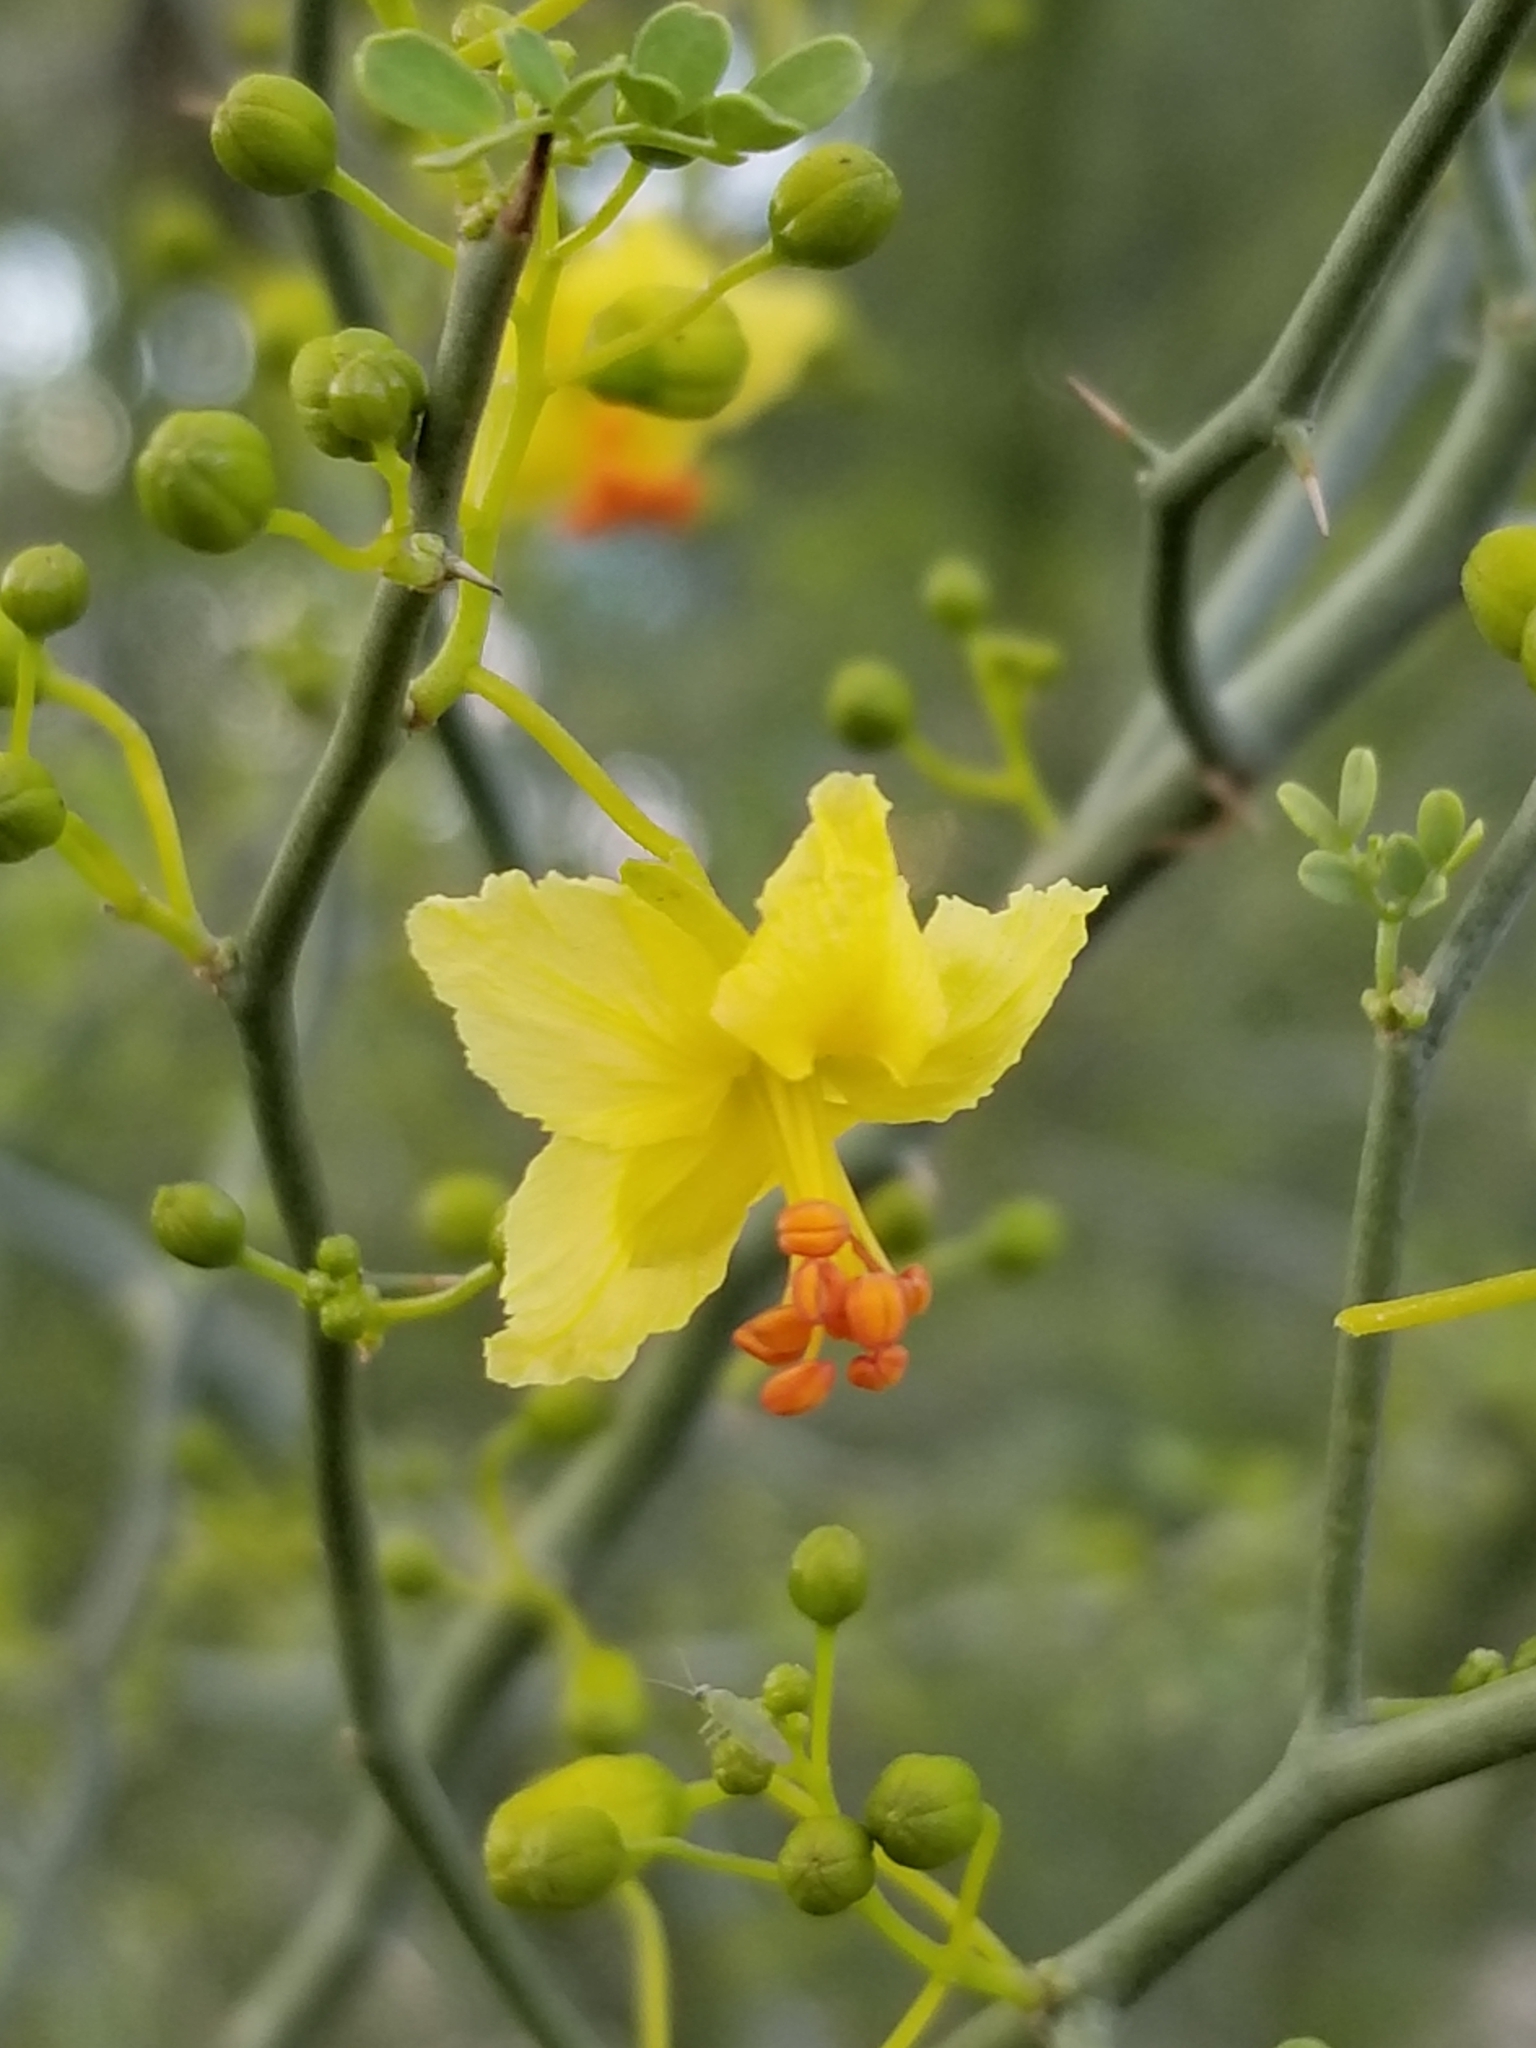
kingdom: Plantae
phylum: Tracheophyta
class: Magnoliopsida
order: Fabales
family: Fabaceae
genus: Parkinsonia
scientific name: Parkinsonia florida
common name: Blue paloverde
